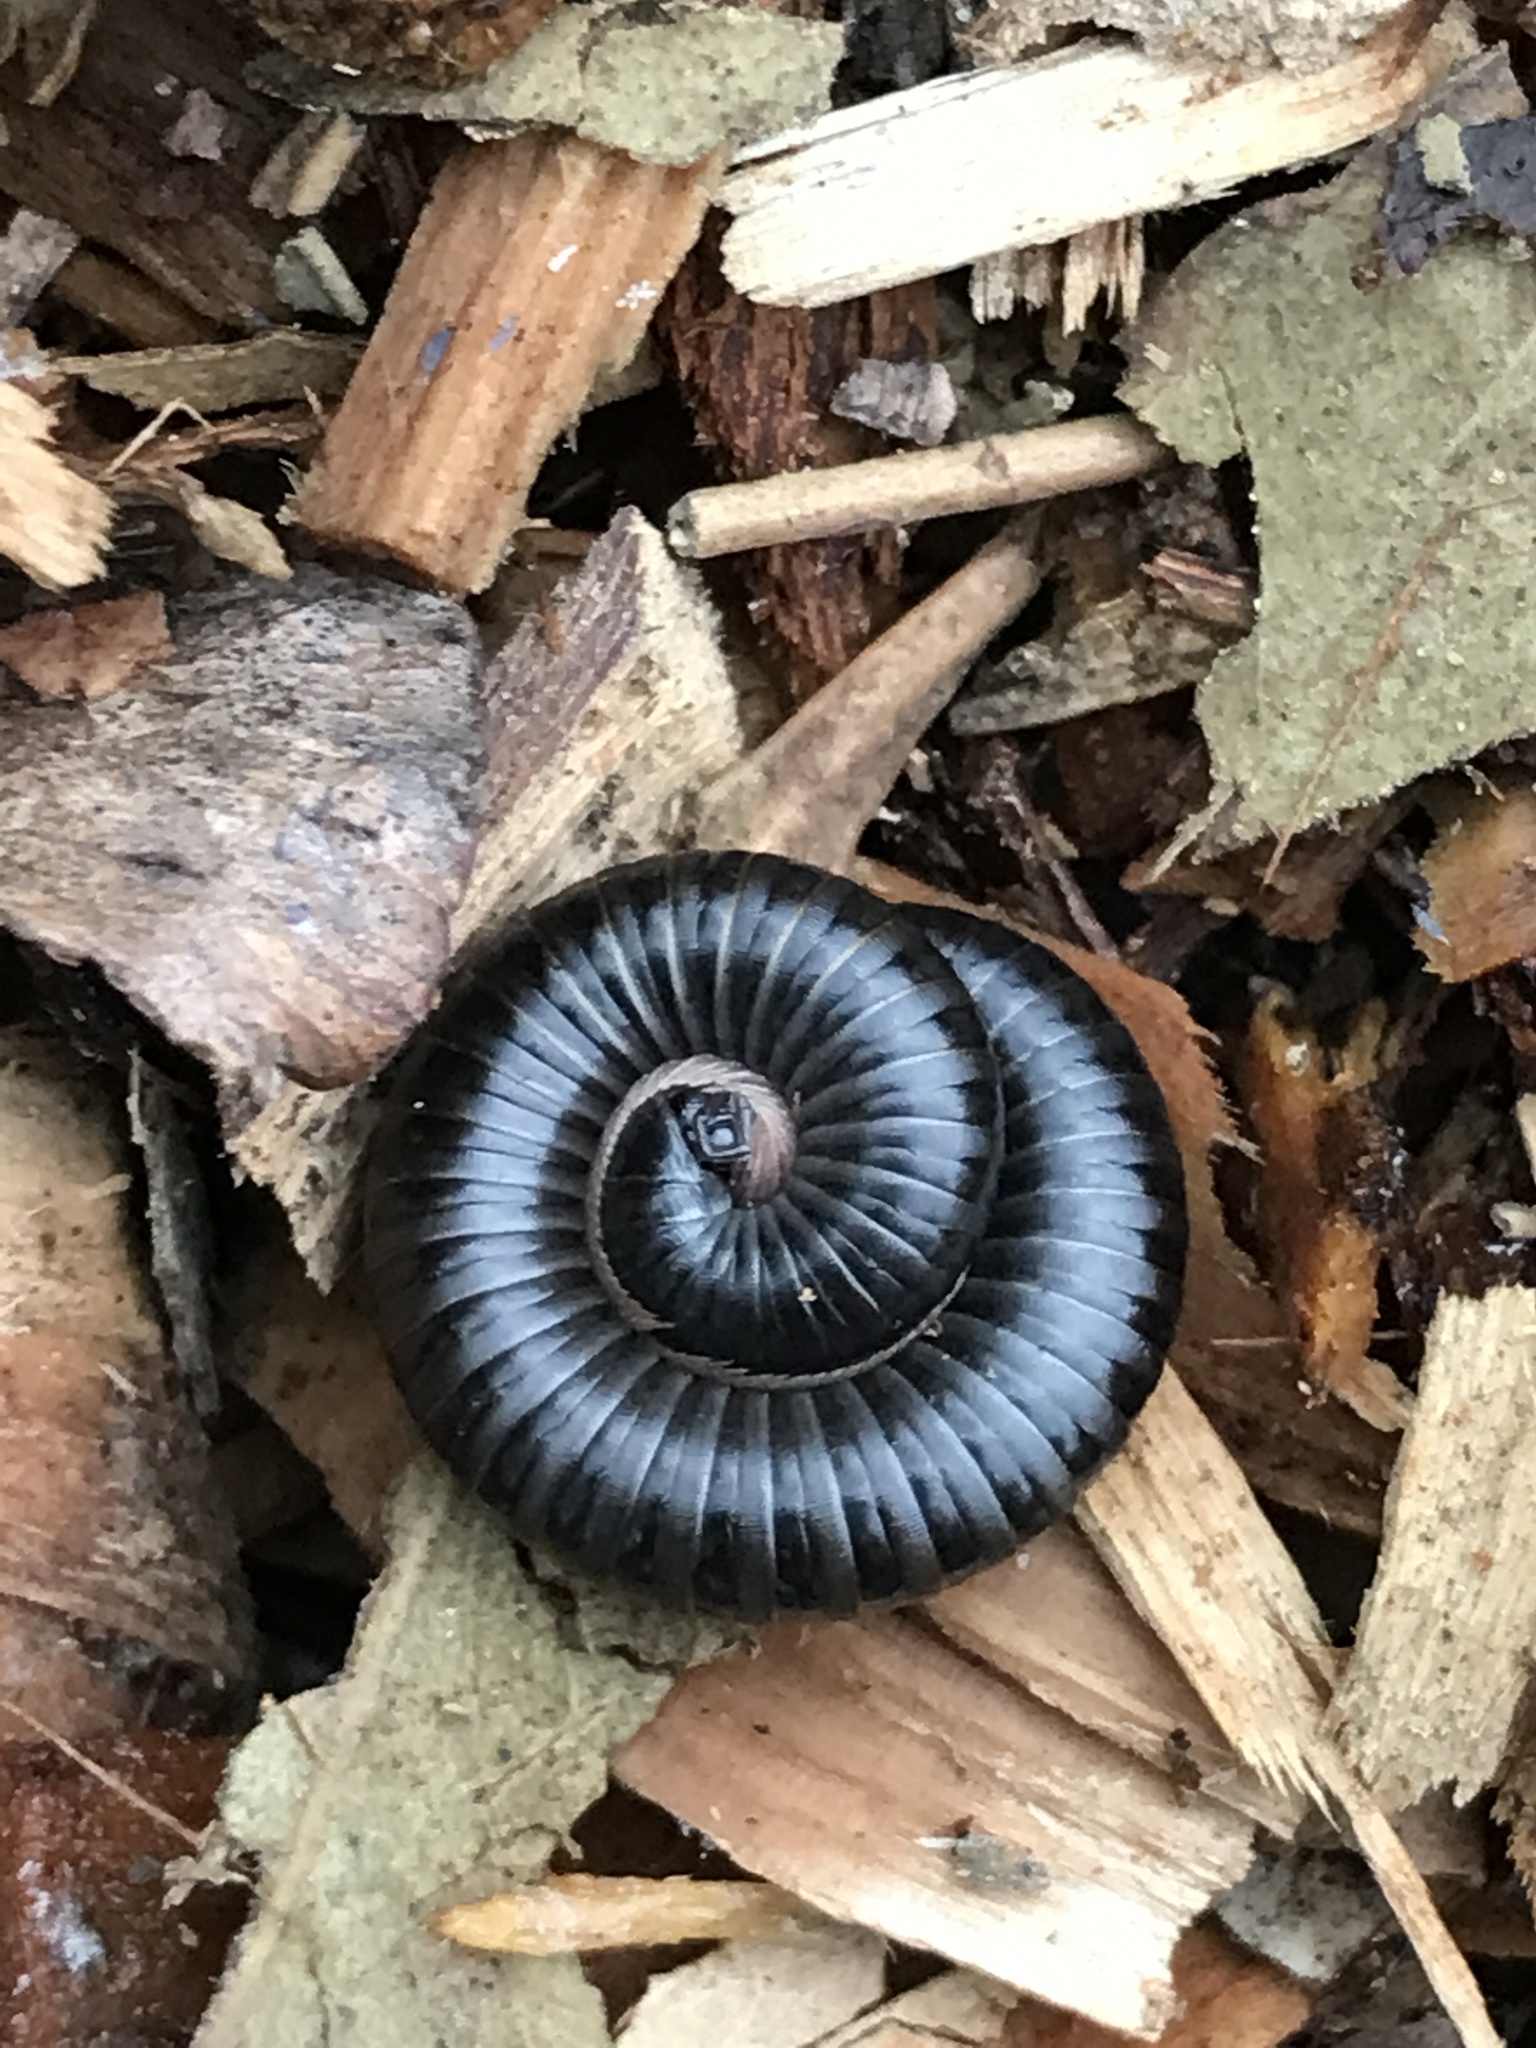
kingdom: Animalia
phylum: Arthropoda
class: Diplopoda
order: Julida
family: Julidae
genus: Ommatoiulus
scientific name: Ommatoiulus moreleti
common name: Portuguese millipede
